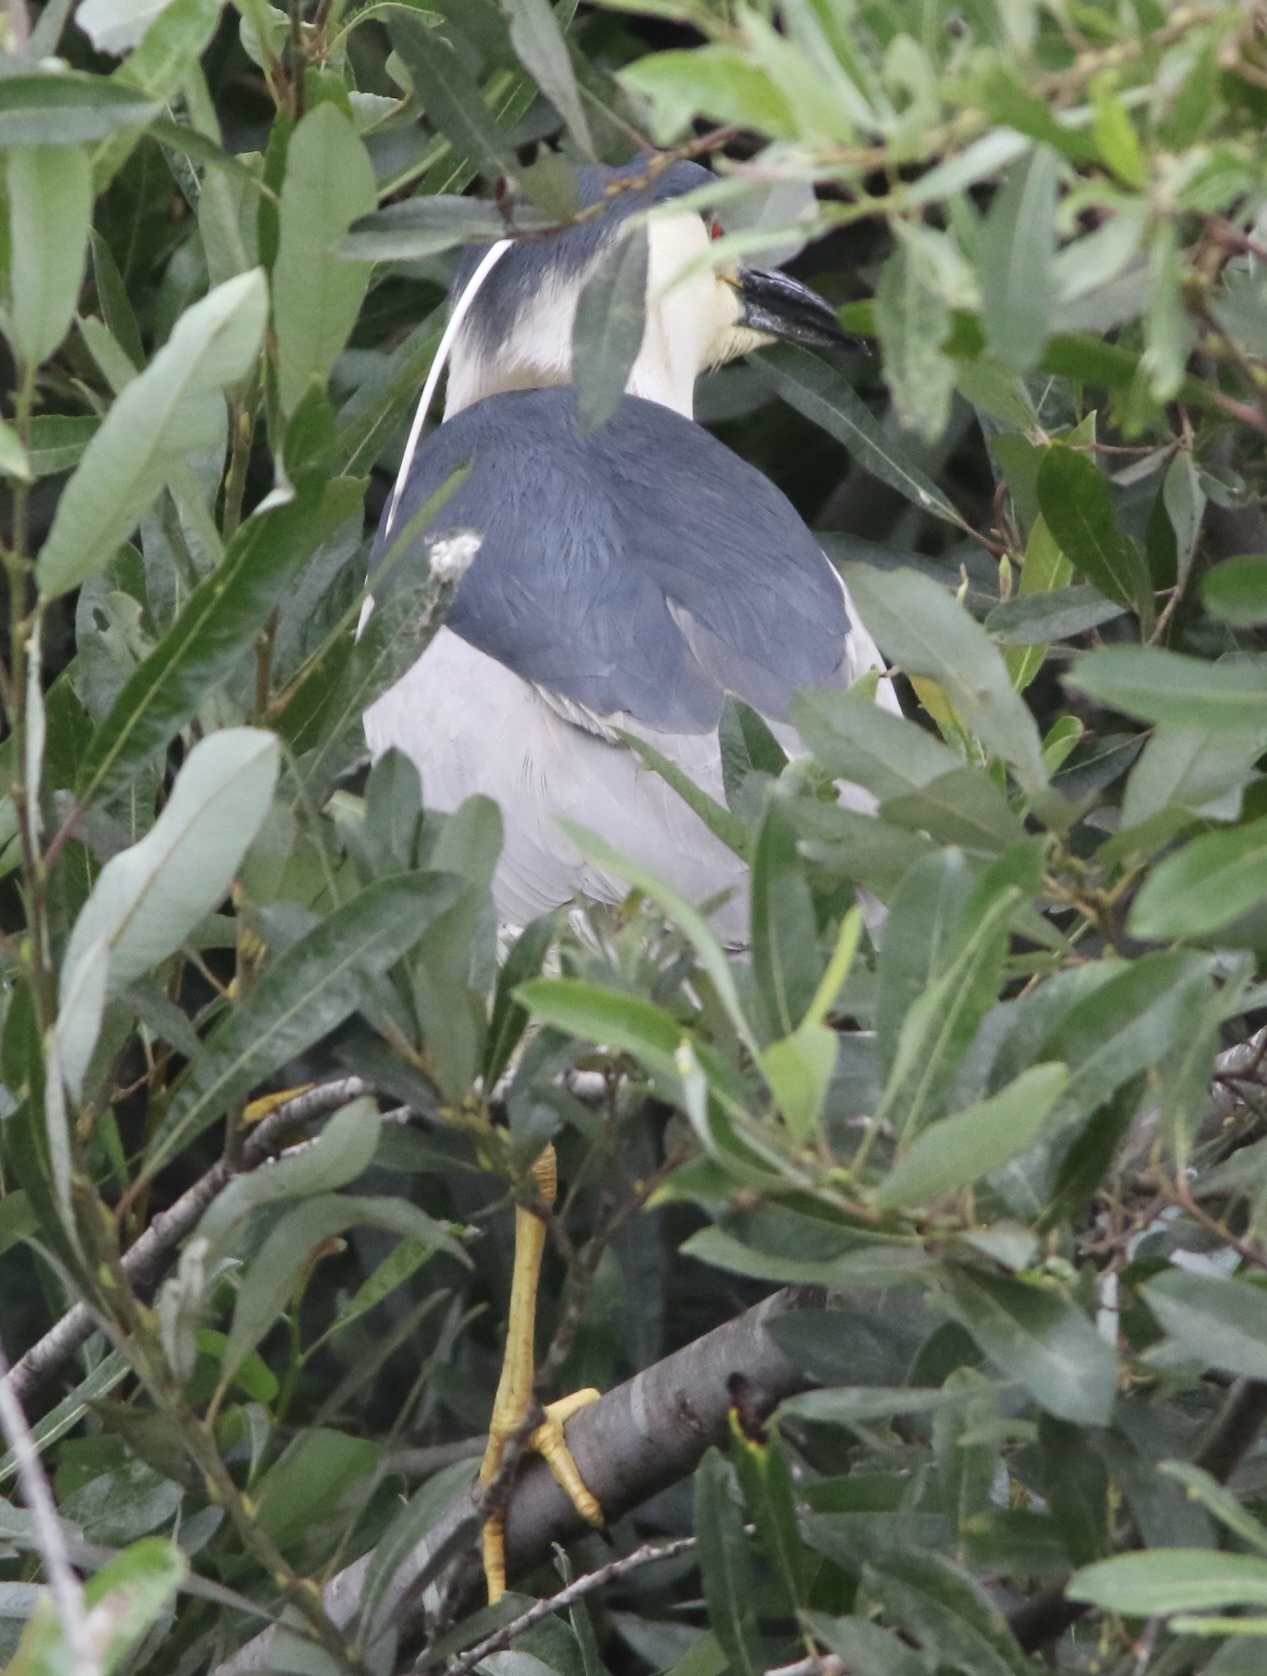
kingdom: Animalia
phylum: Chordata
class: Aves
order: Pelecaniformes
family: Ardeidae
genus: Nycticorax
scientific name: Nycticorax nycticorax
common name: Black-crowned night heron
